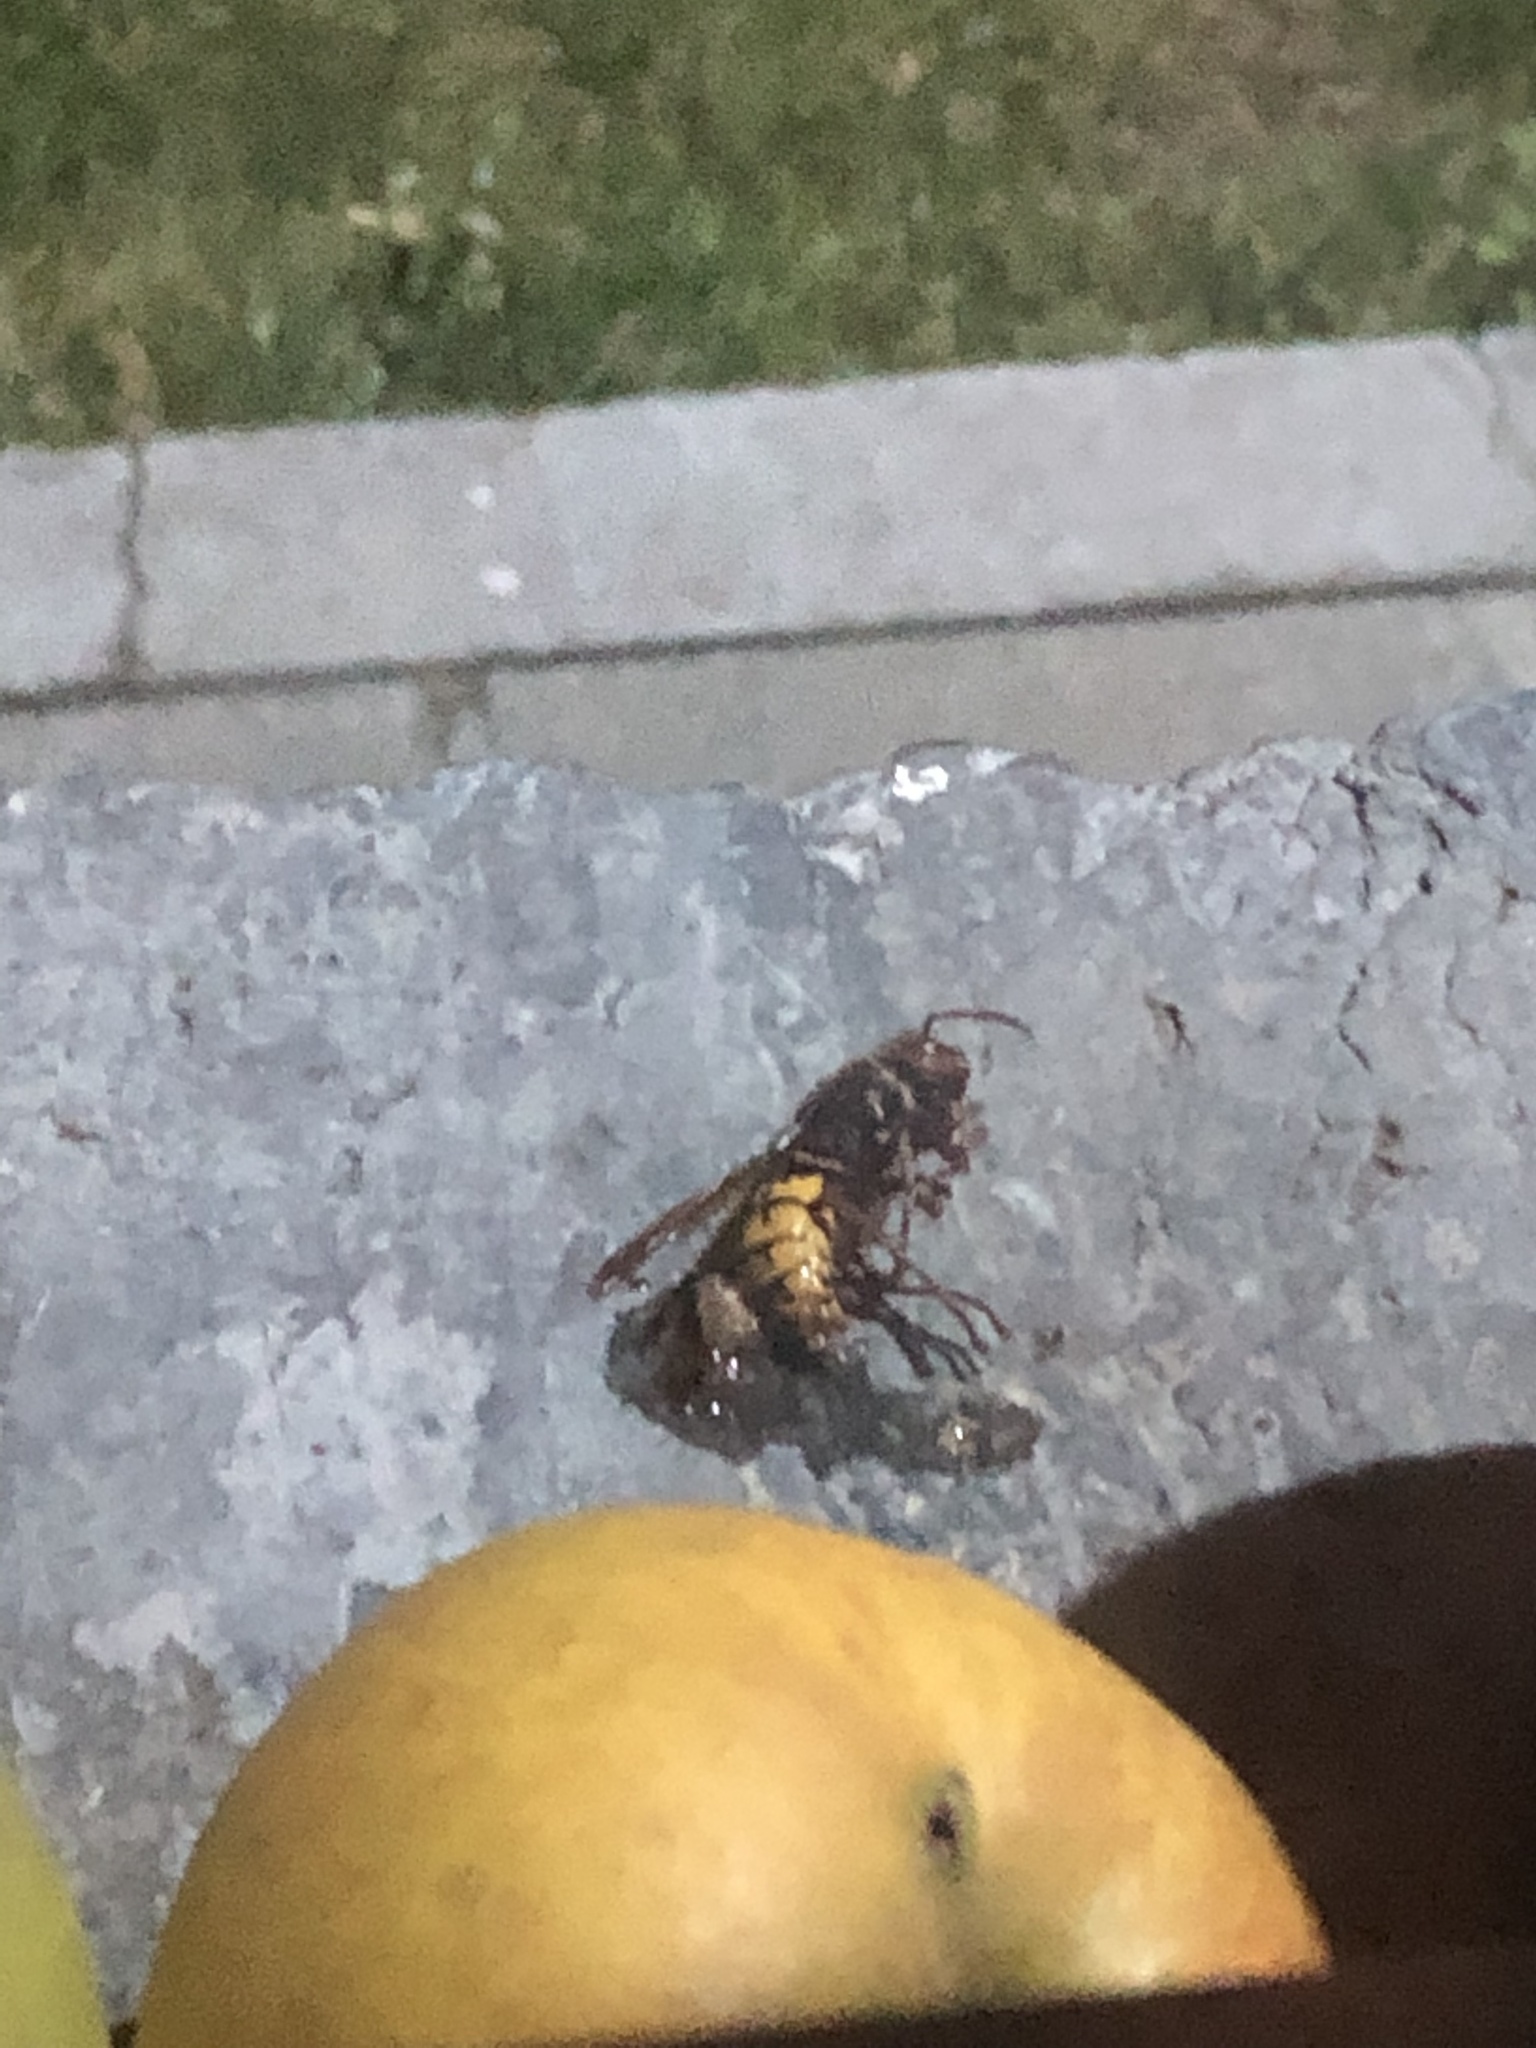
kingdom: Animalia
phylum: Arthropoda
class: Insecta
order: Hymenoptera
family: Vespidae
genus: Vespa
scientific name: Vespa crabro
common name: Hornet
